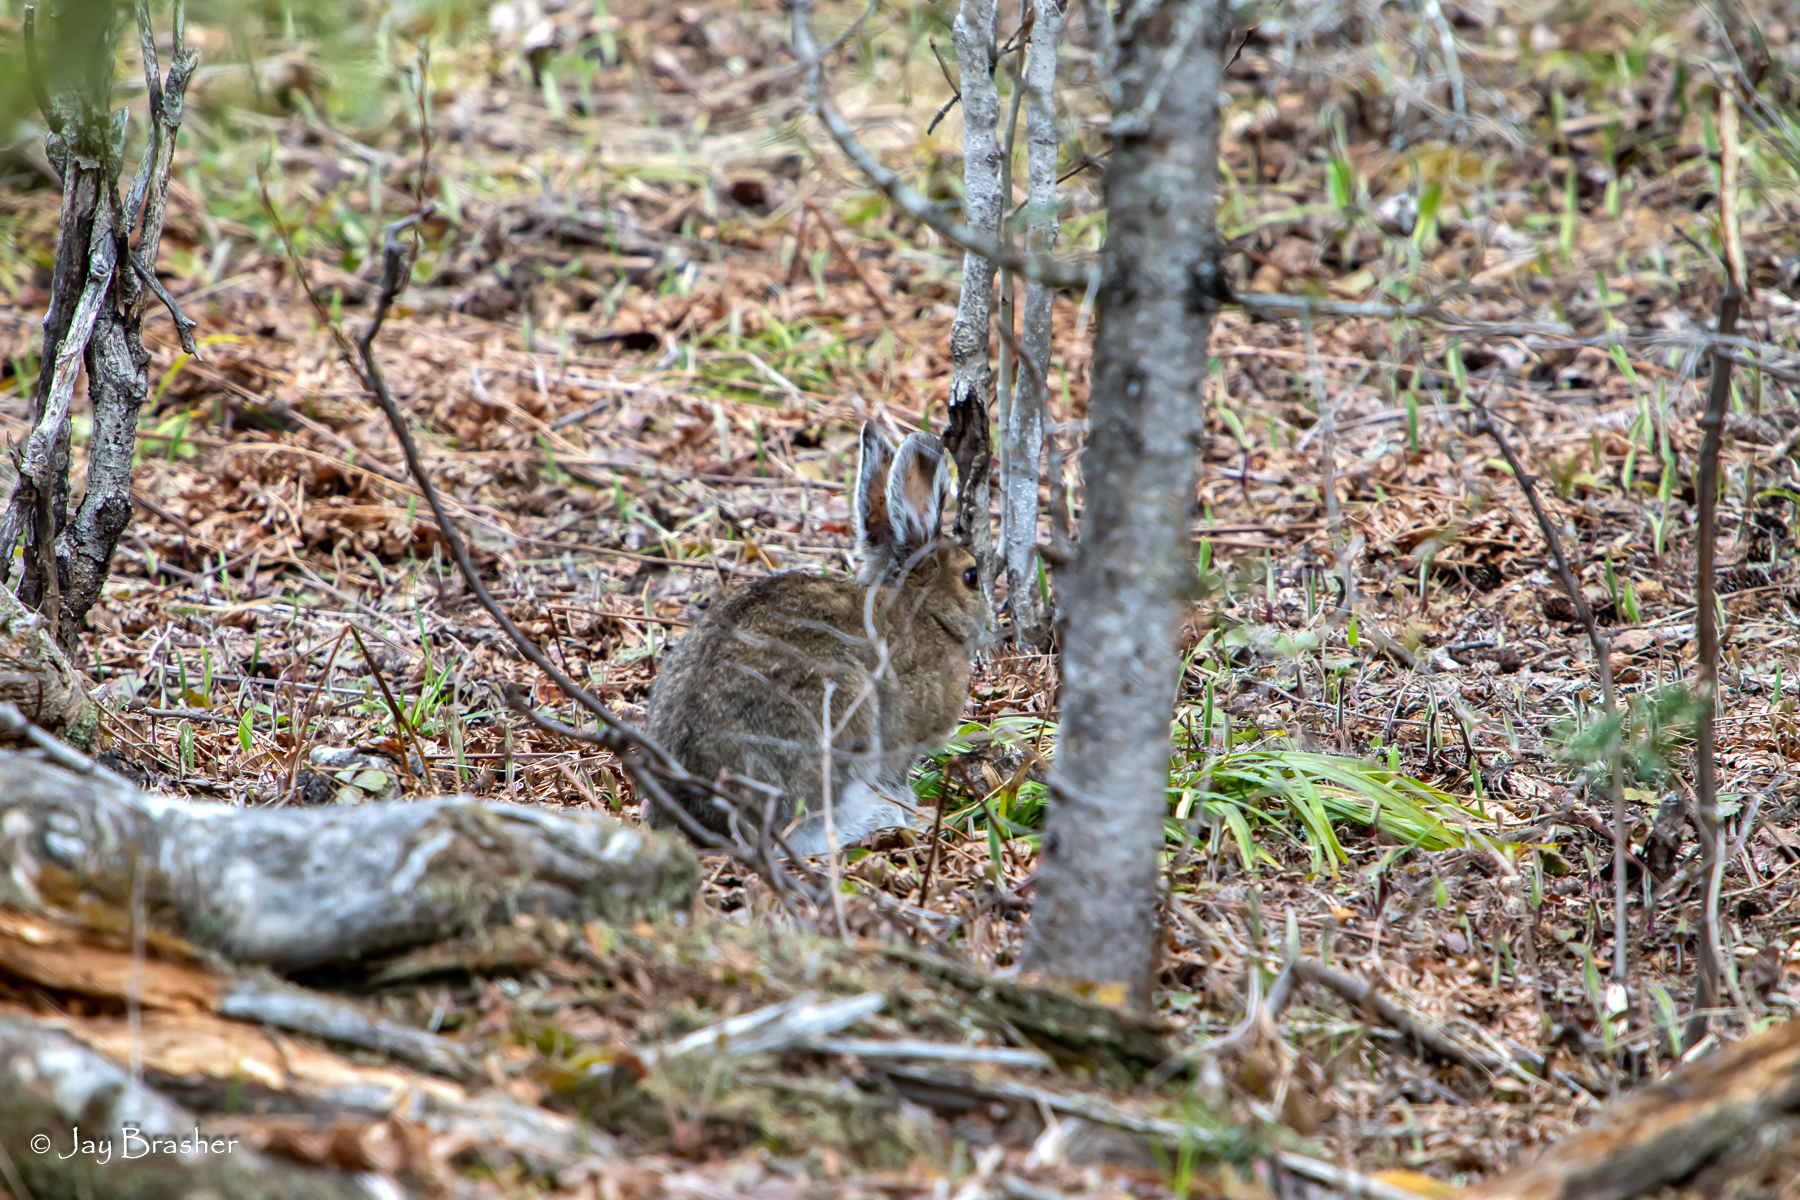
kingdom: Animalia
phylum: Chordata
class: Mammalia
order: Lagomorpha
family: Leporidae
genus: Lepus
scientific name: Lepus americanus
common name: Snowshoe hare
